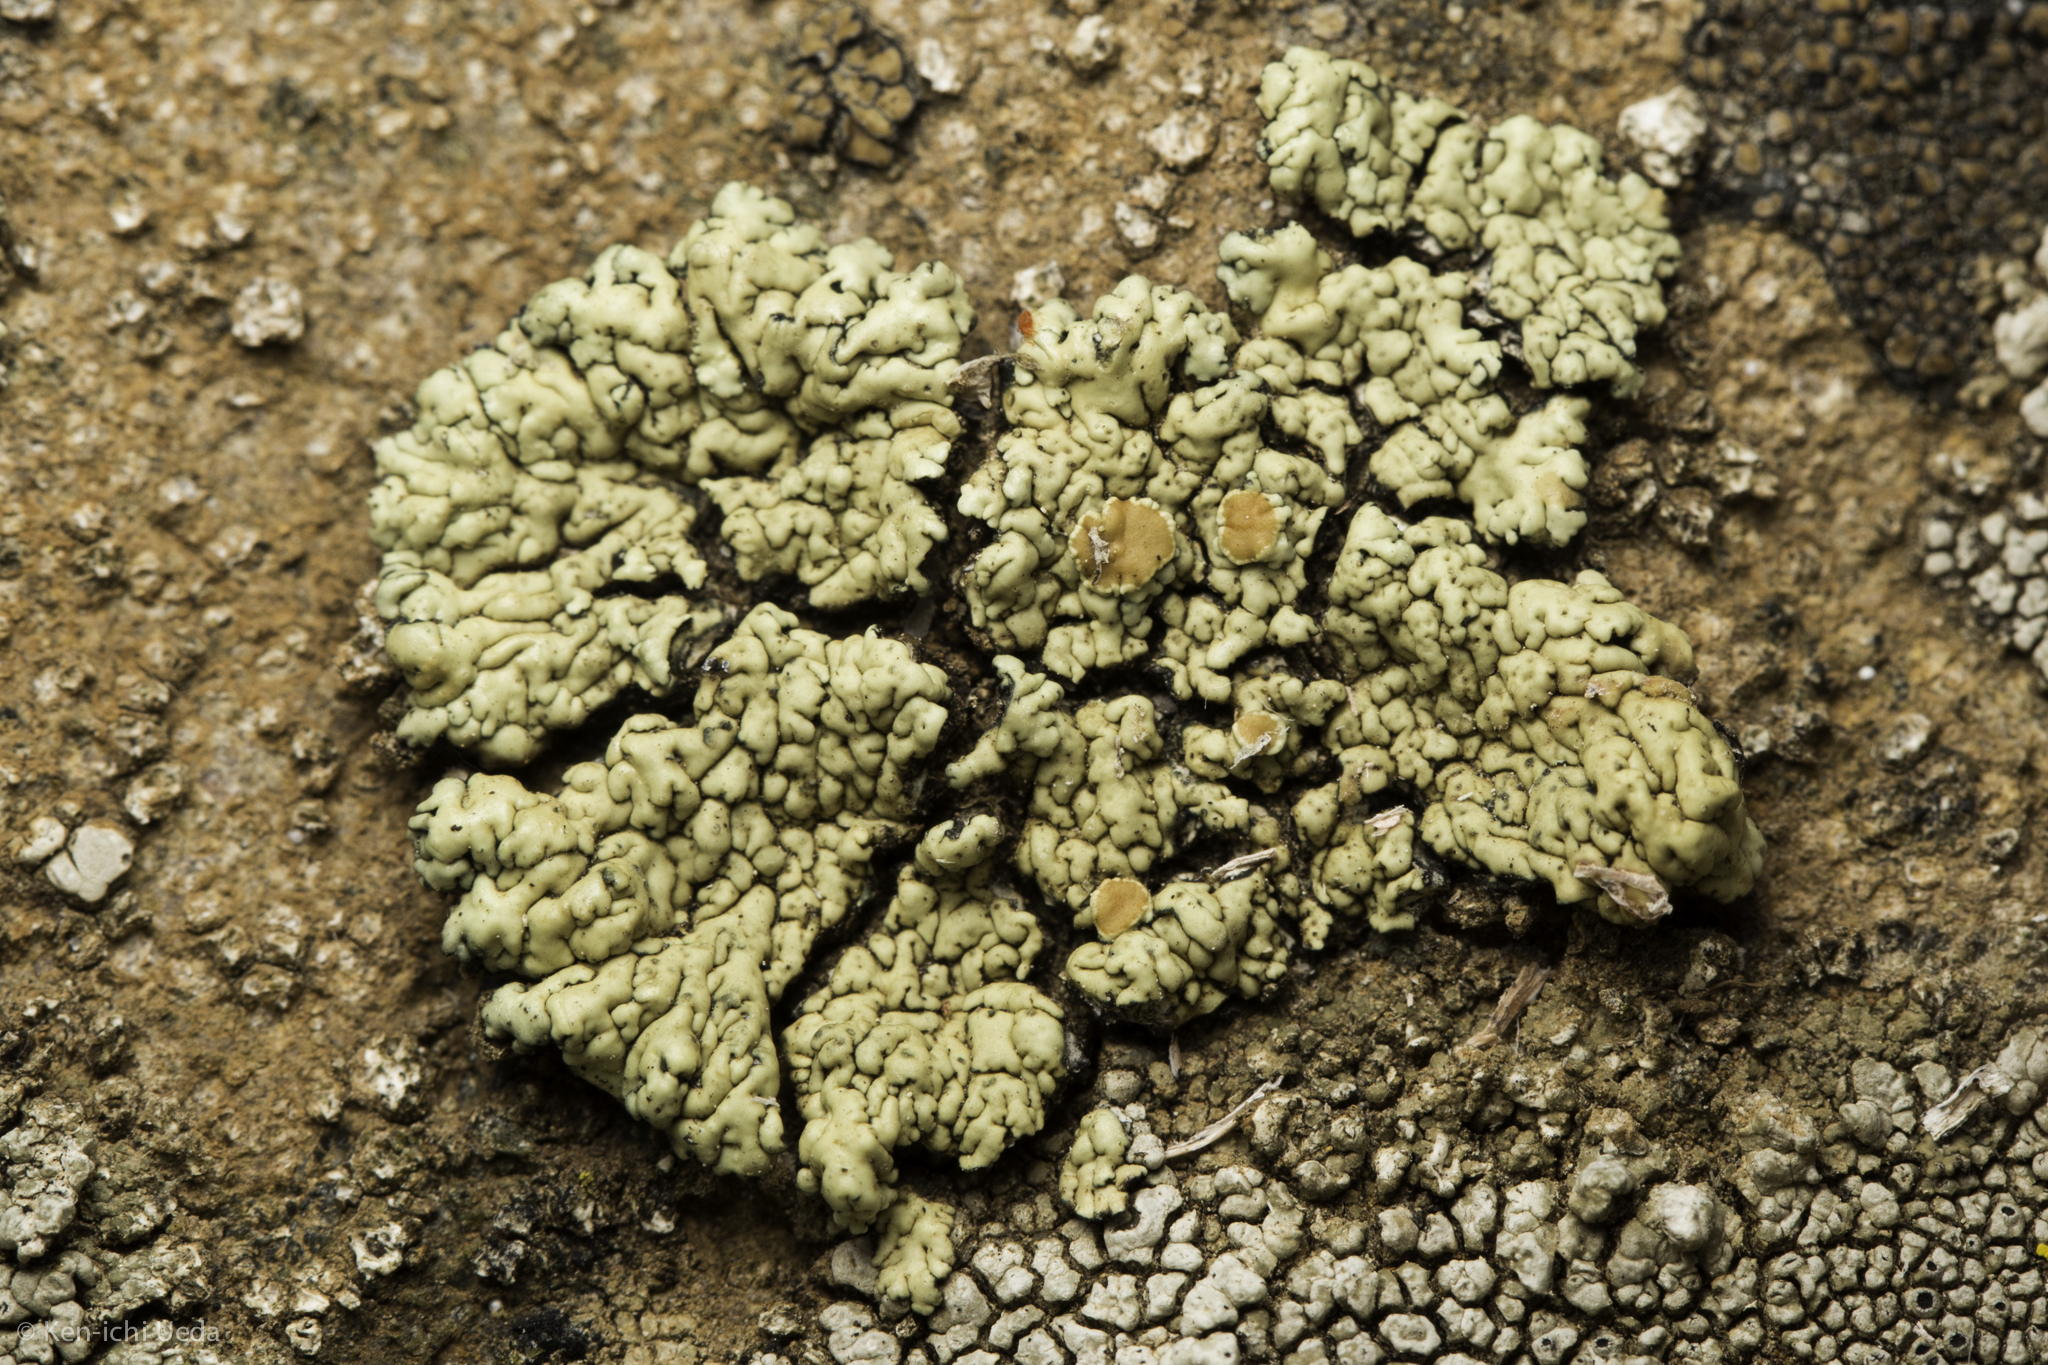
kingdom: Fungi
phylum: Ascomycota
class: Lecanoromycetes
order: Lecanorales
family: Lecanoraceae
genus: Omphalodina
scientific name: Omphalodina chrysoleuca
